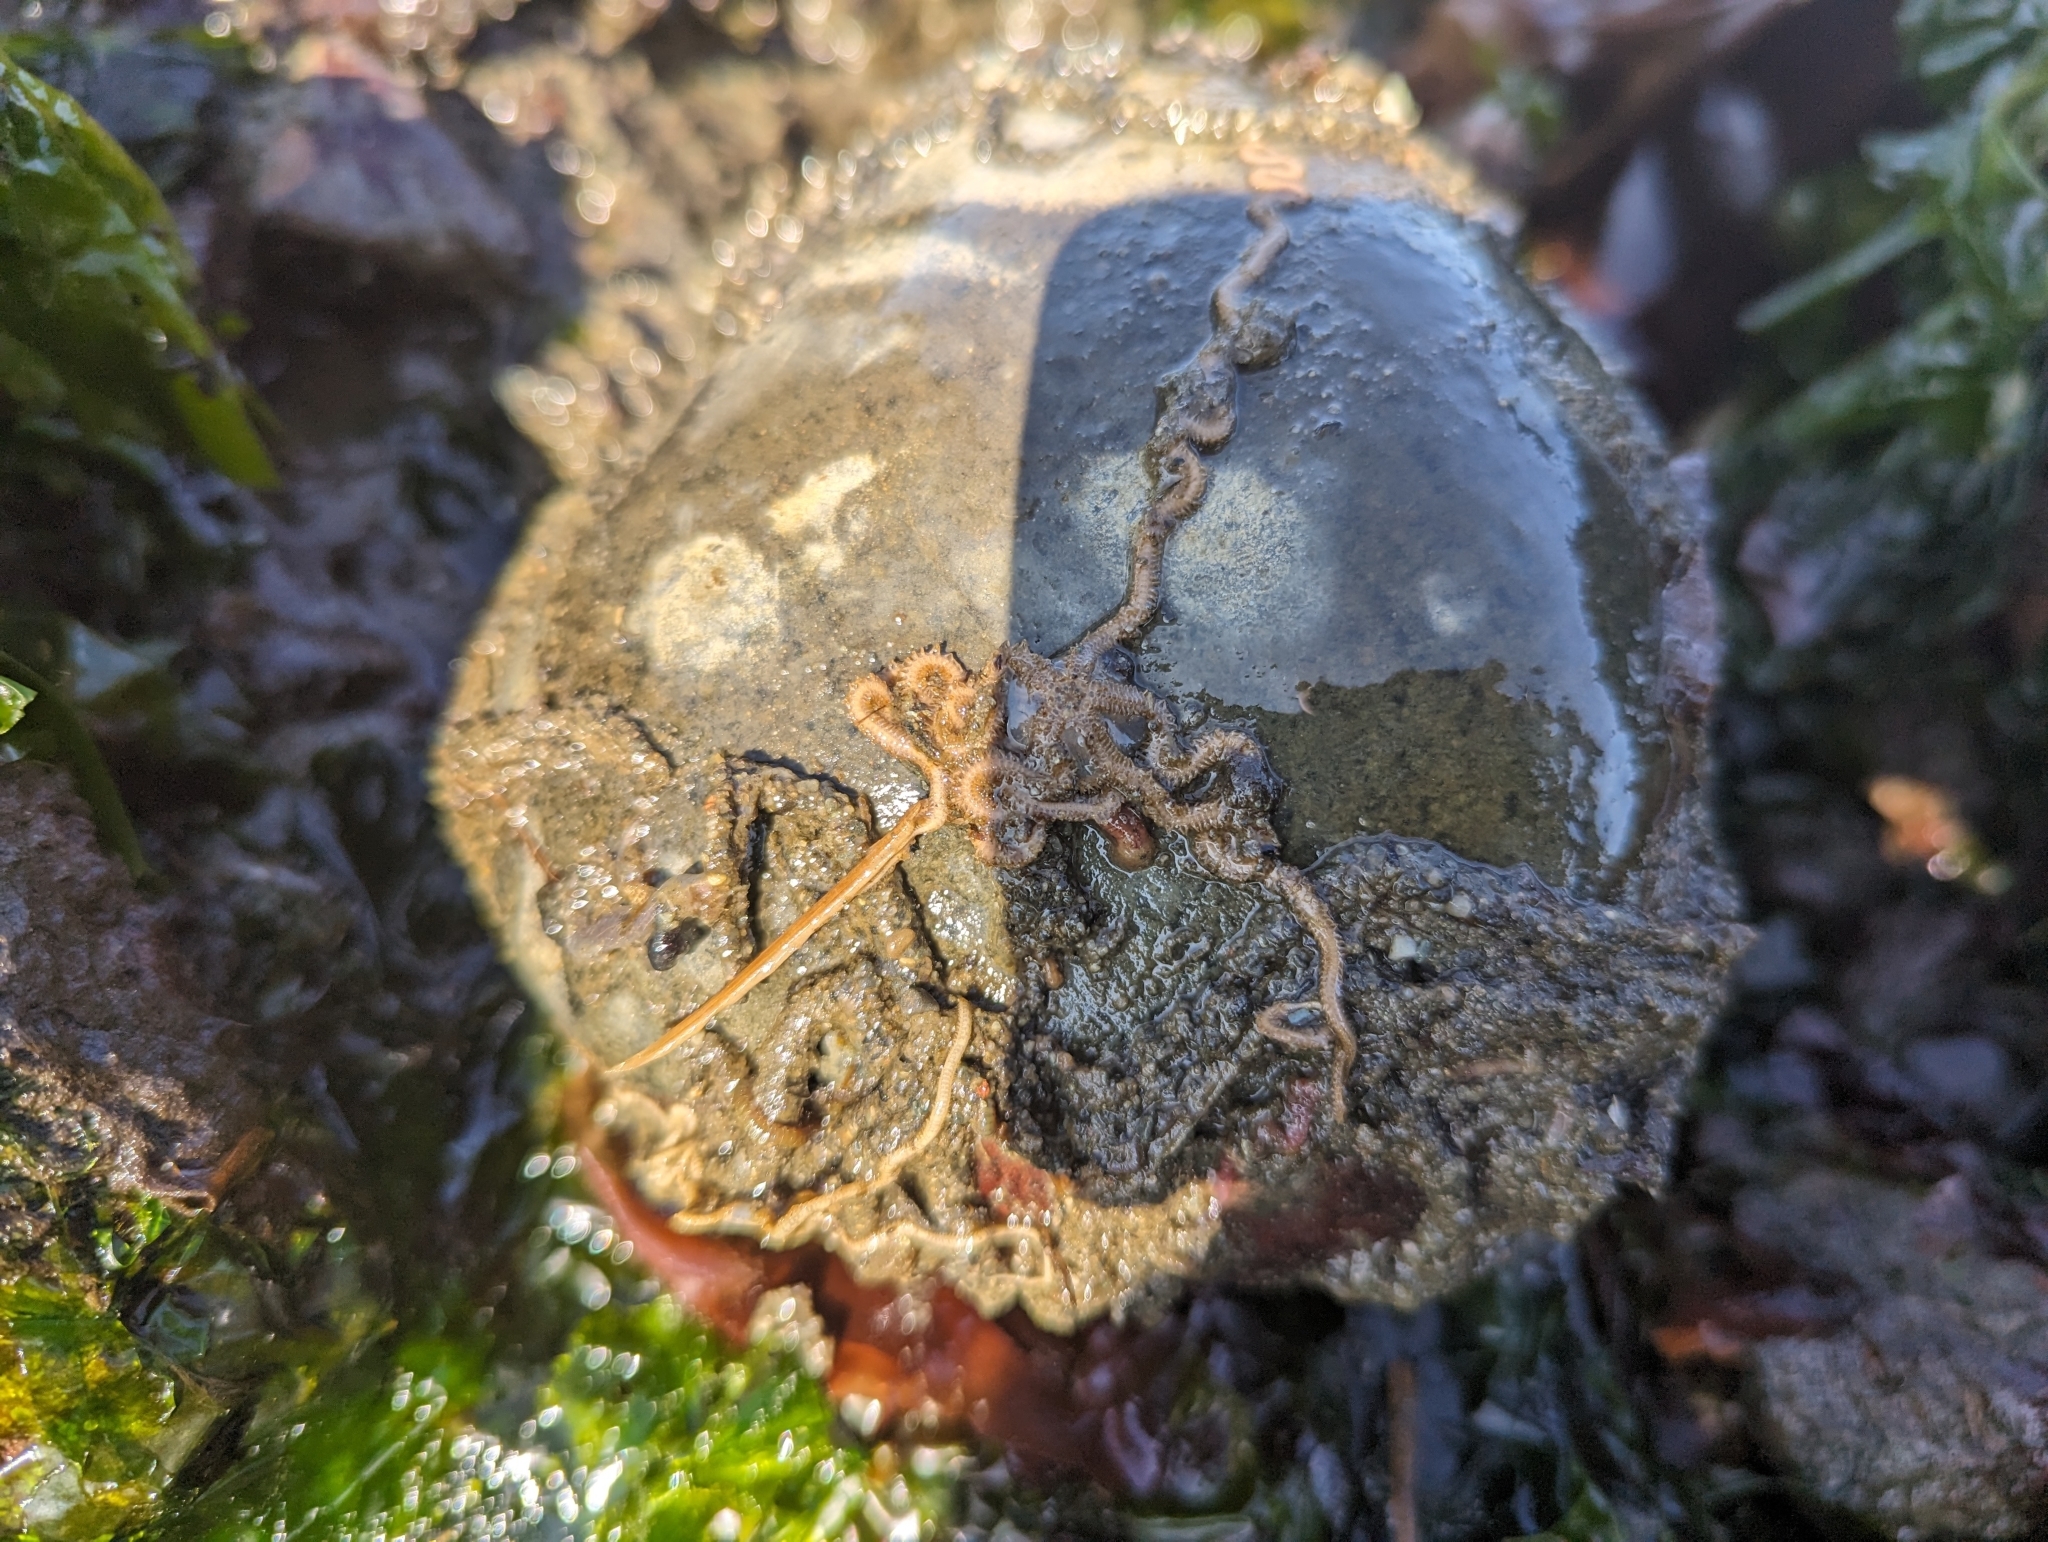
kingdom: Animalia
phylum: Echinodermata
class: Ophiuroidea
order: Amphilepidida
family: Amphiuridae
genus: Amphiodia
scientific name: Amphiodia occidentalis
